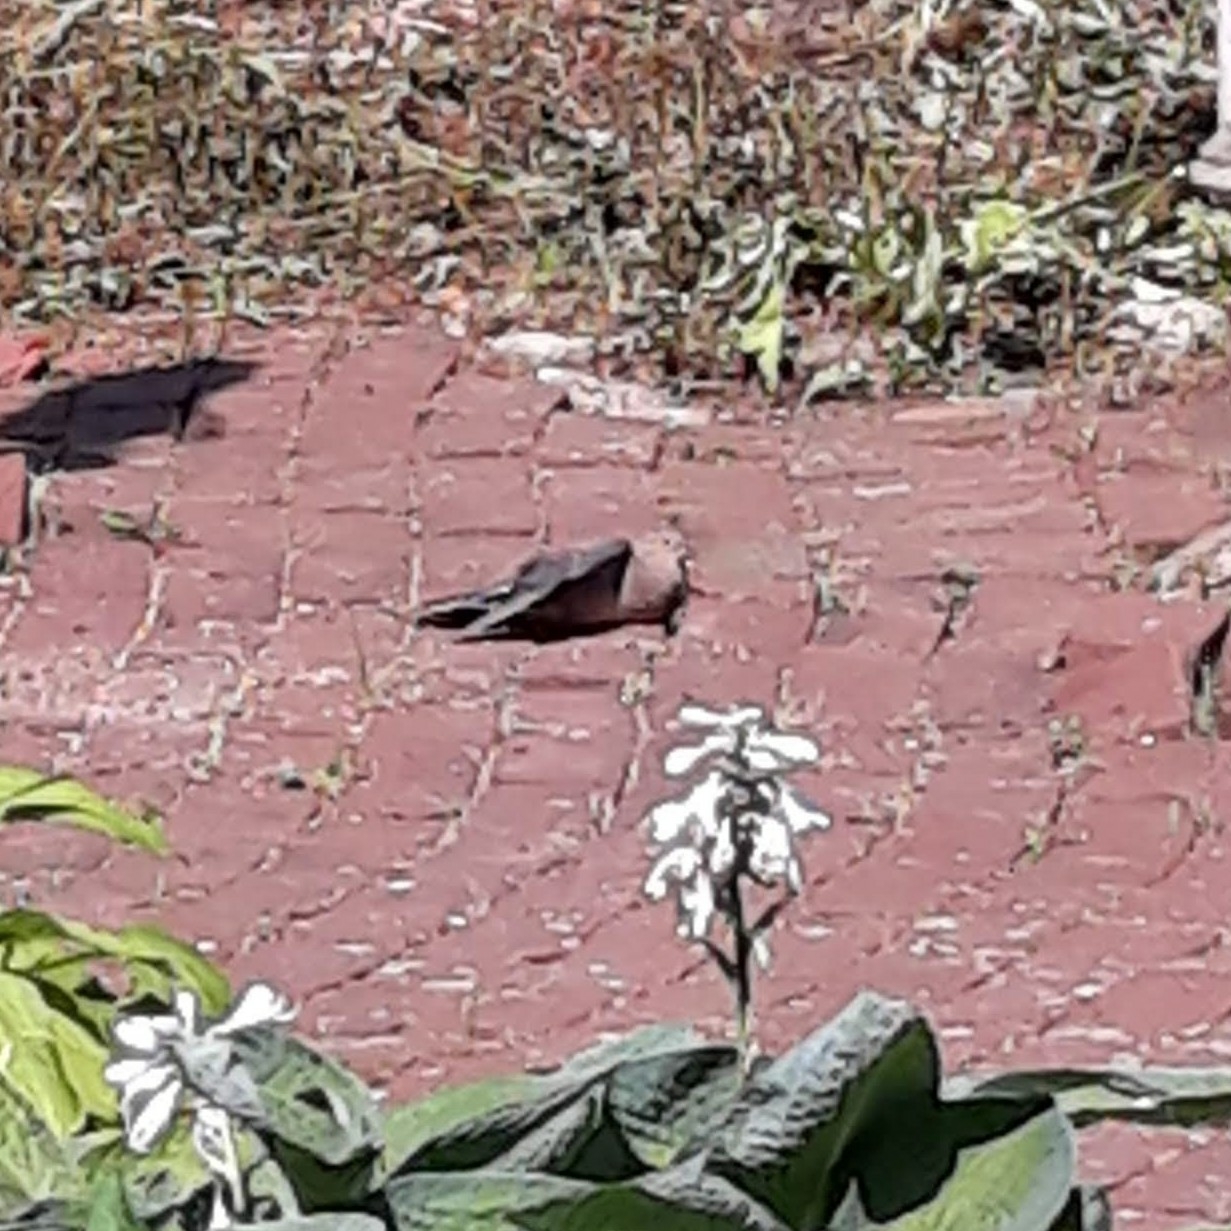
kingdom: Animalia
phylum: Chordata
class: Aves
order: Columbiformes
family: Columbidae
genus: Zenaida
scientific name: Zenaida macroura
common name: Mourning dove
